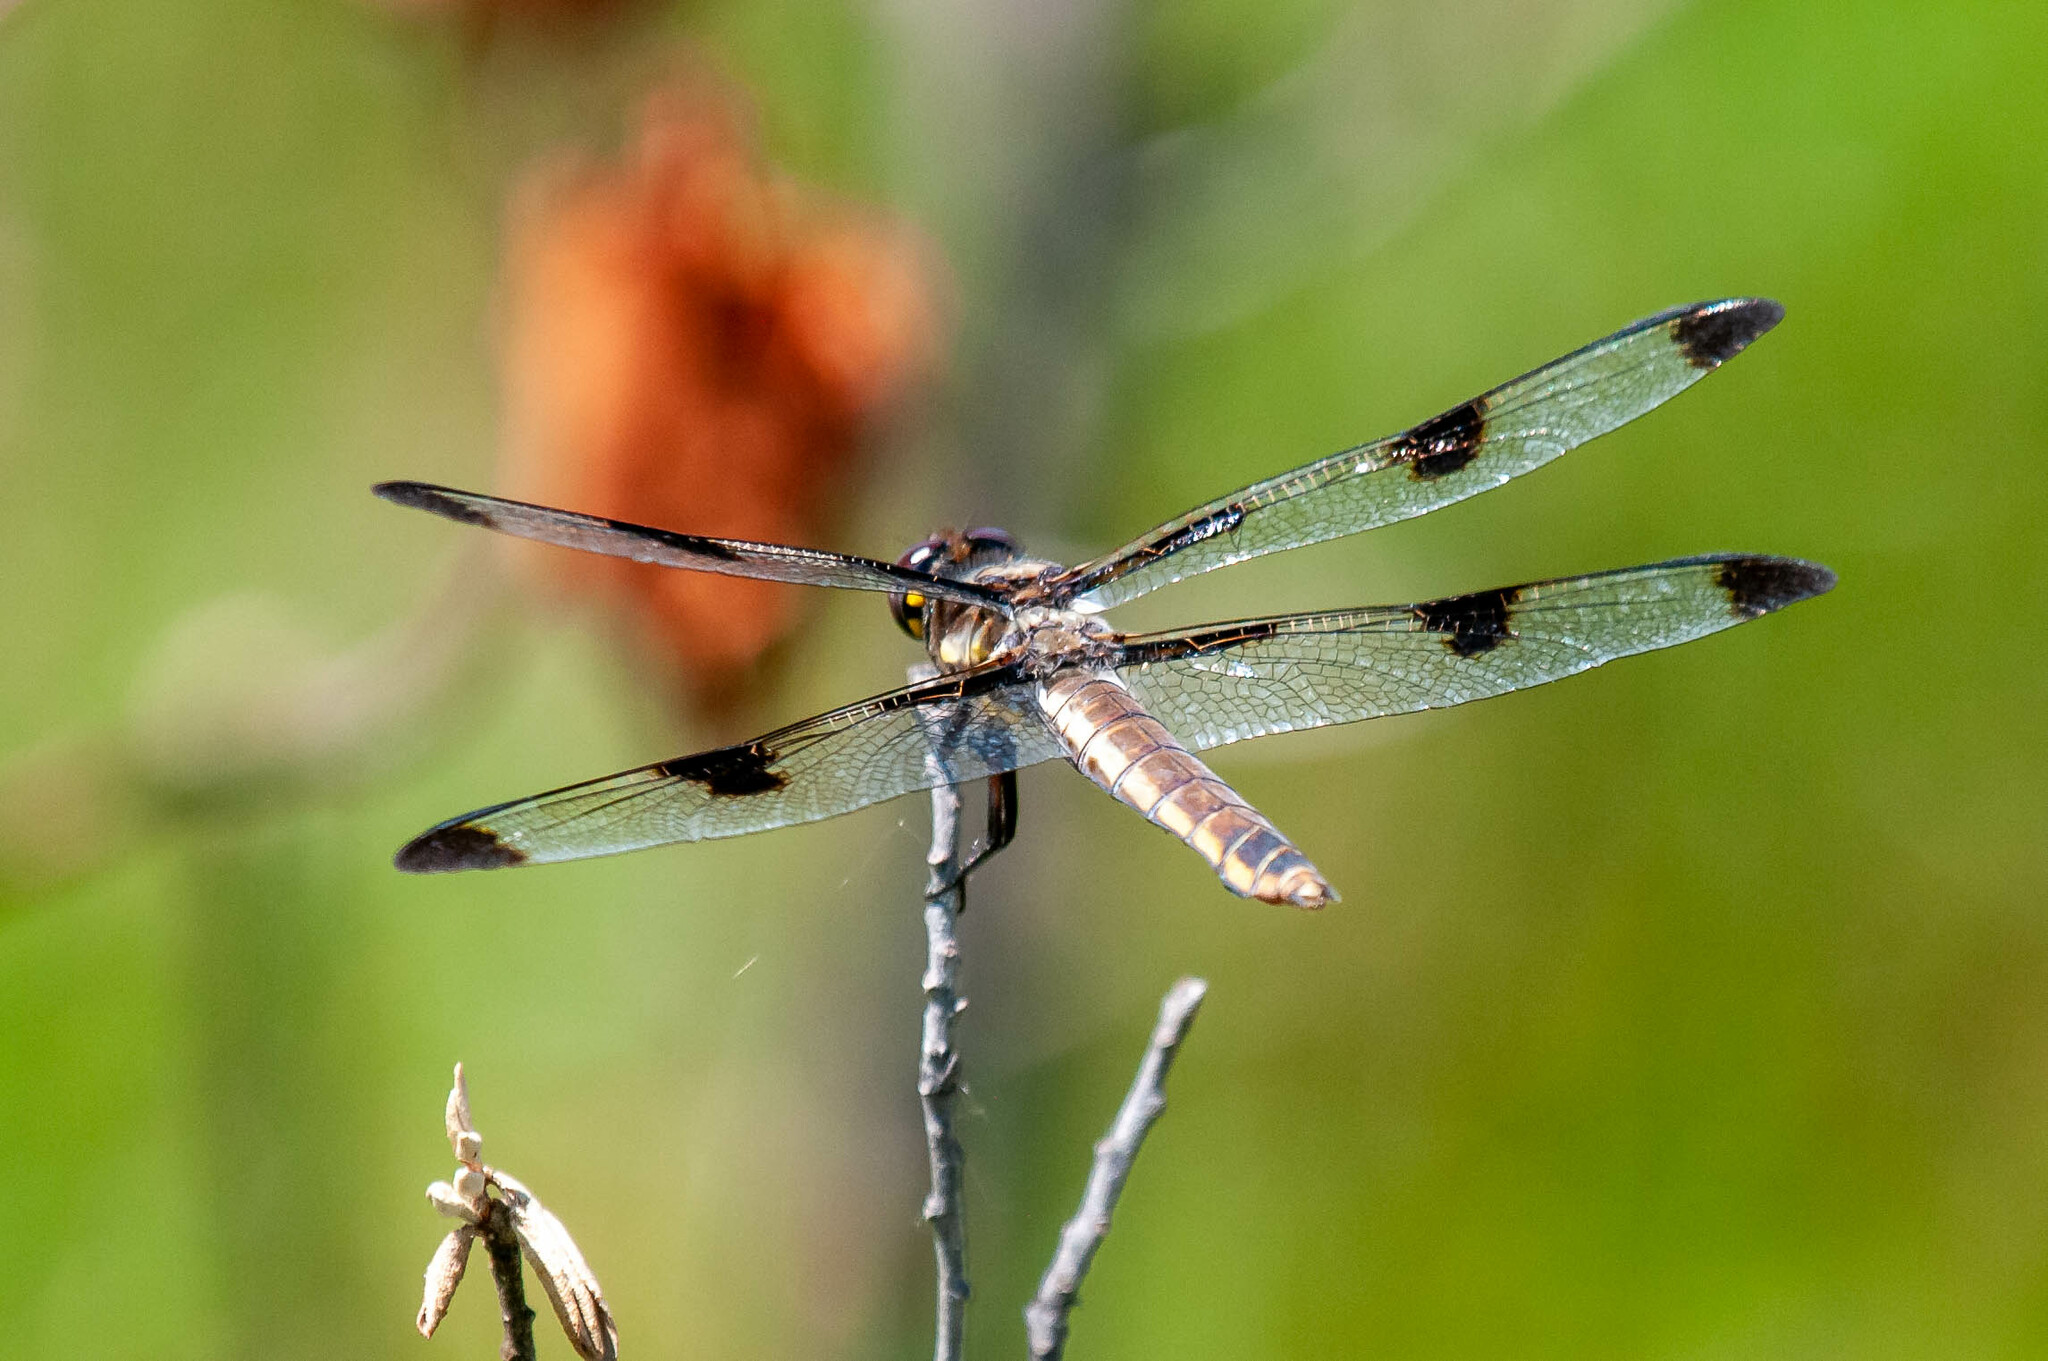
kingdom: Animalia
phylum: Arthropoda
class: Insecta
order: Odonata
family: Libellulidae
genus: Libellula
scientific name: Libellula pulchella
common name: Twelve-spotted skimmer
